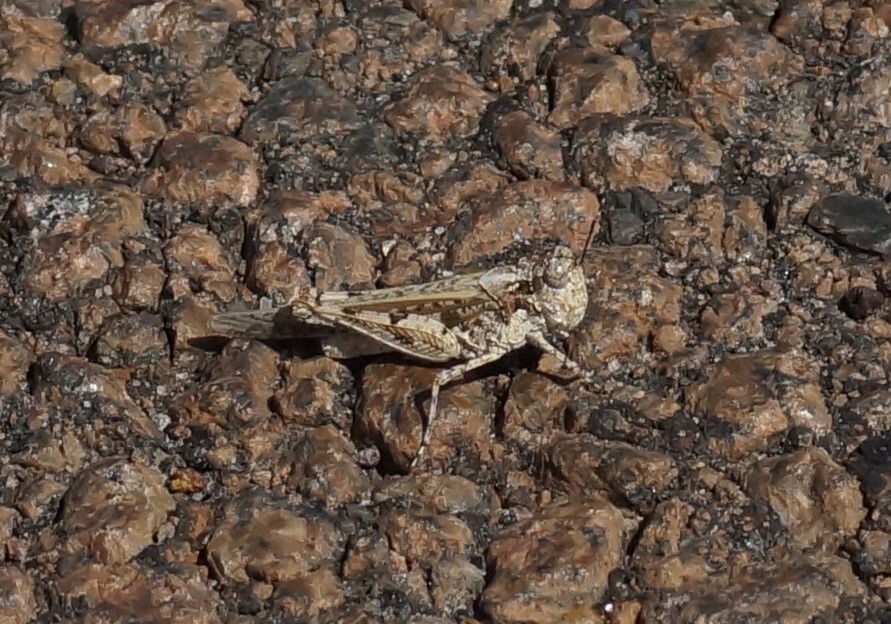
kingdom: Animalia
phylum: Arthropoda
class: Insecta
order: Orthoptera
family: Acrididae
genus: Pycnostictus
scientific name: Pycnostictus seriatus
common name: Common bandwing
